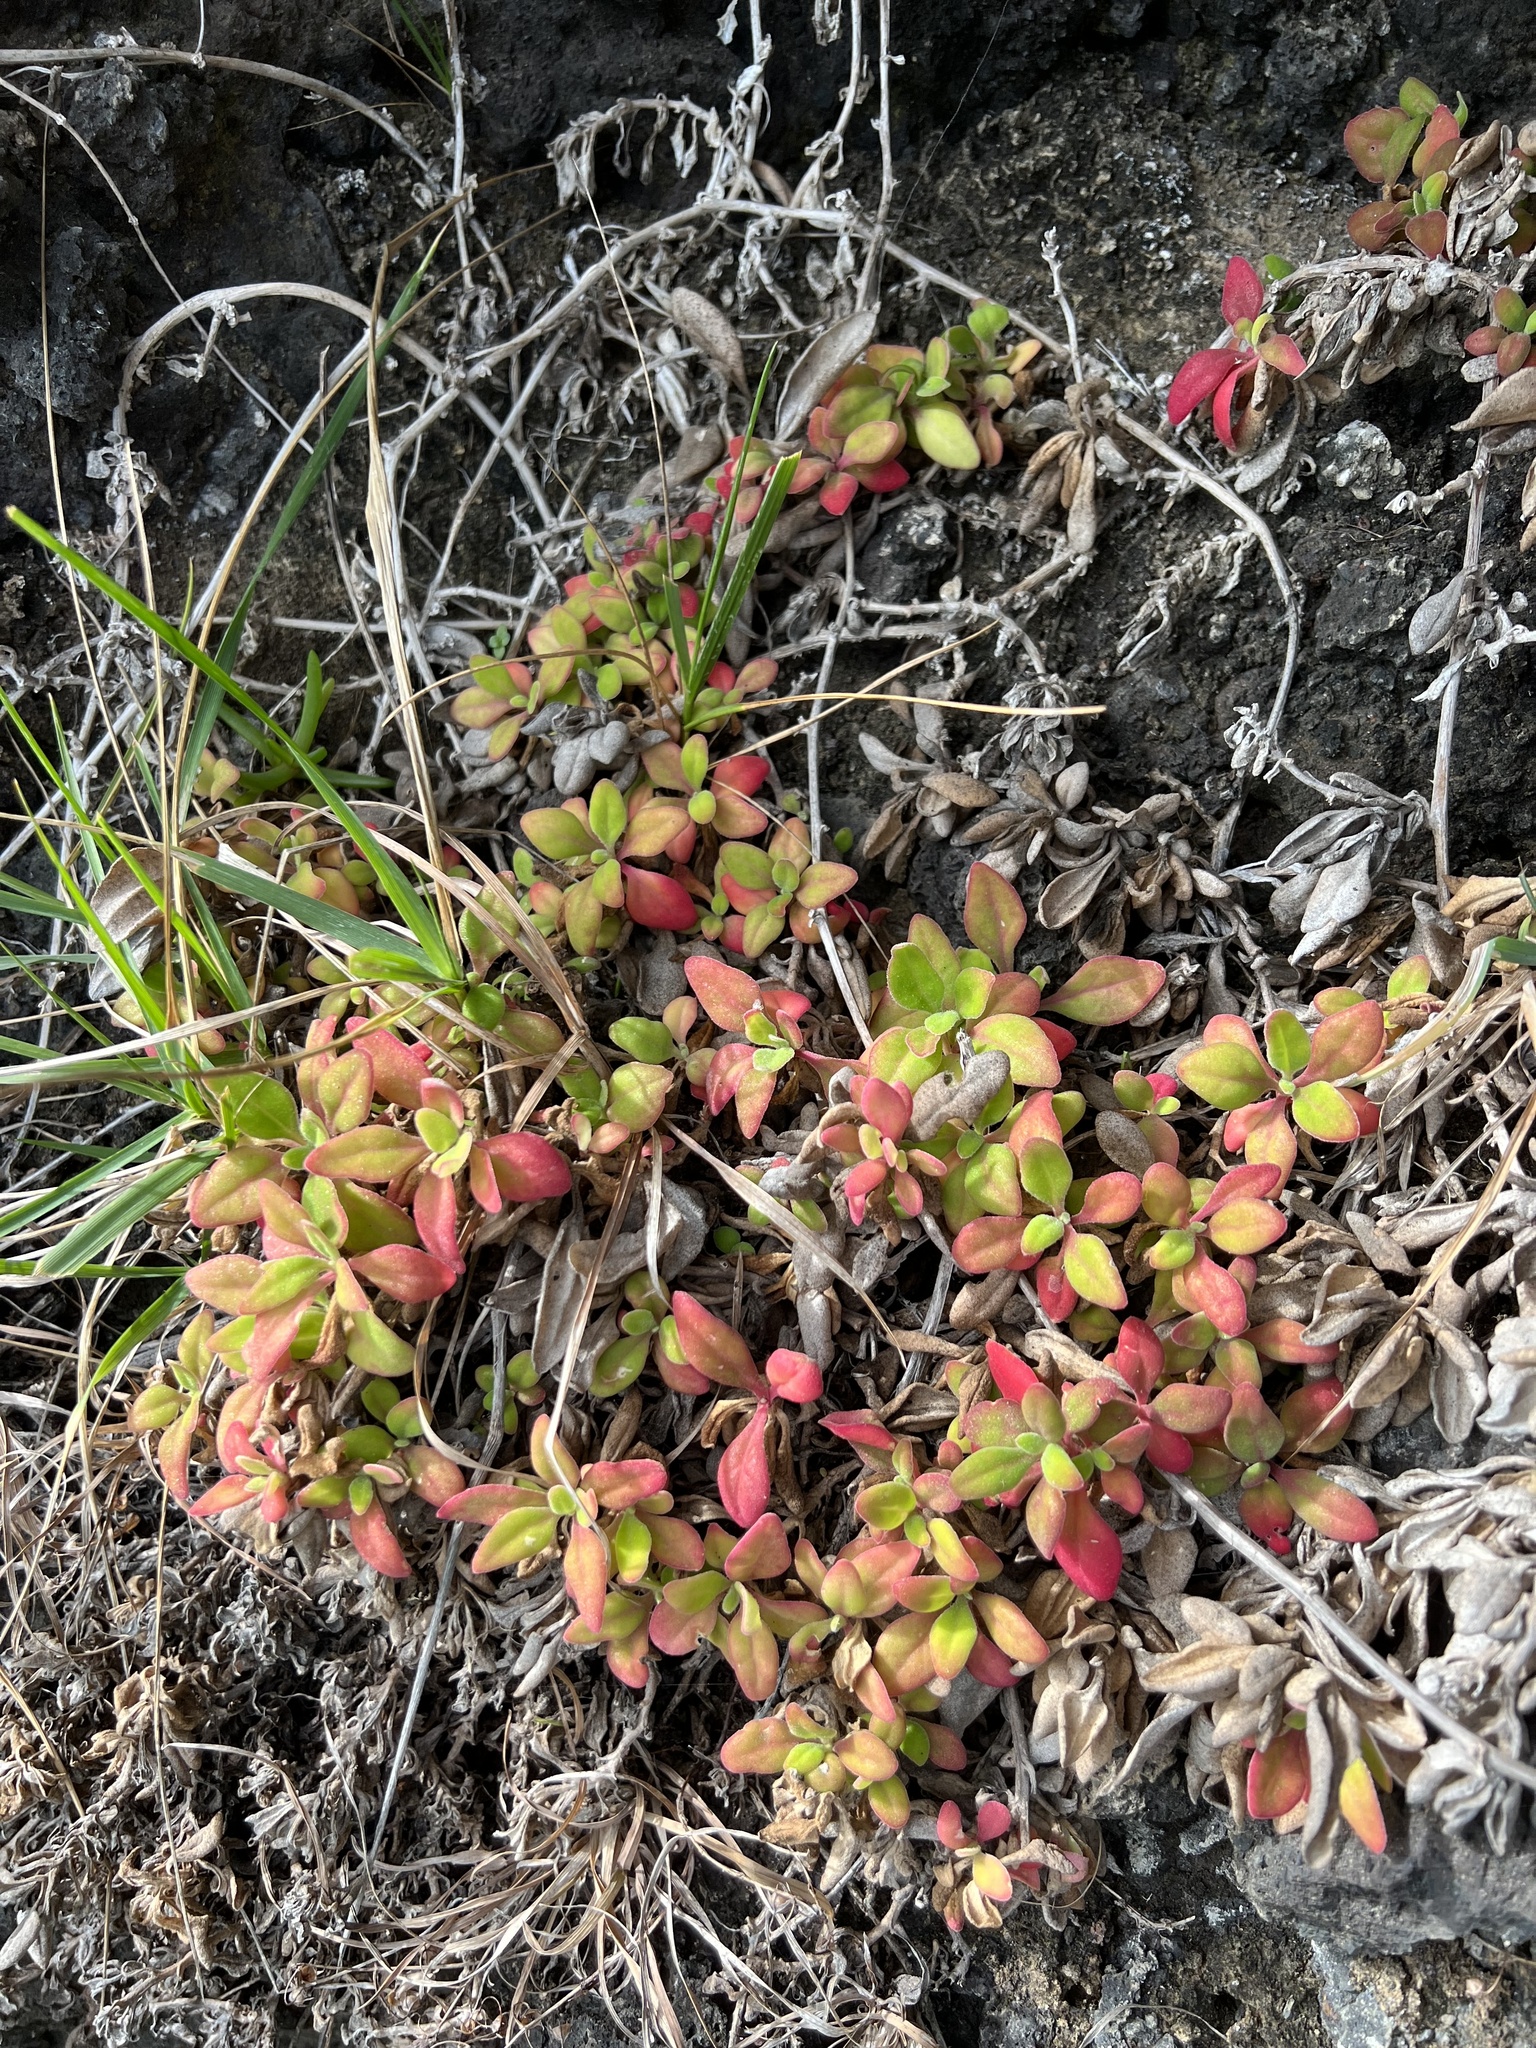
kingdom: Plantae
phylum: Tracheophyta
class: Magnoliopsida
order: Caryophyllales
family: Aizoaceae
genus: Tetragonia
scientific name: Tetragonia implexicoma
